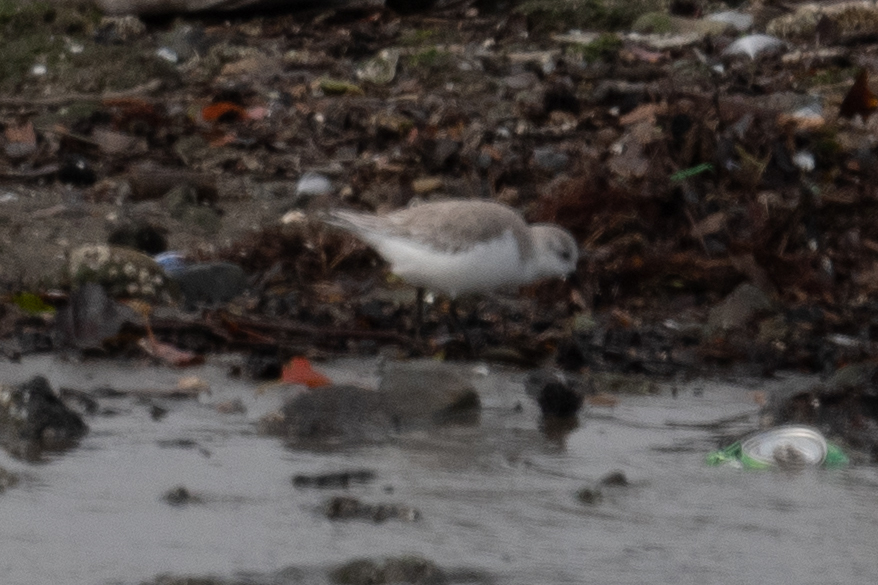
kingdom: Animalia
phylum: Chordata
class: Aves
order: Charadriiformes
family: Scolopacidae
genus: Calidris
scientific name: Calidris alba
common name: Sanderling
